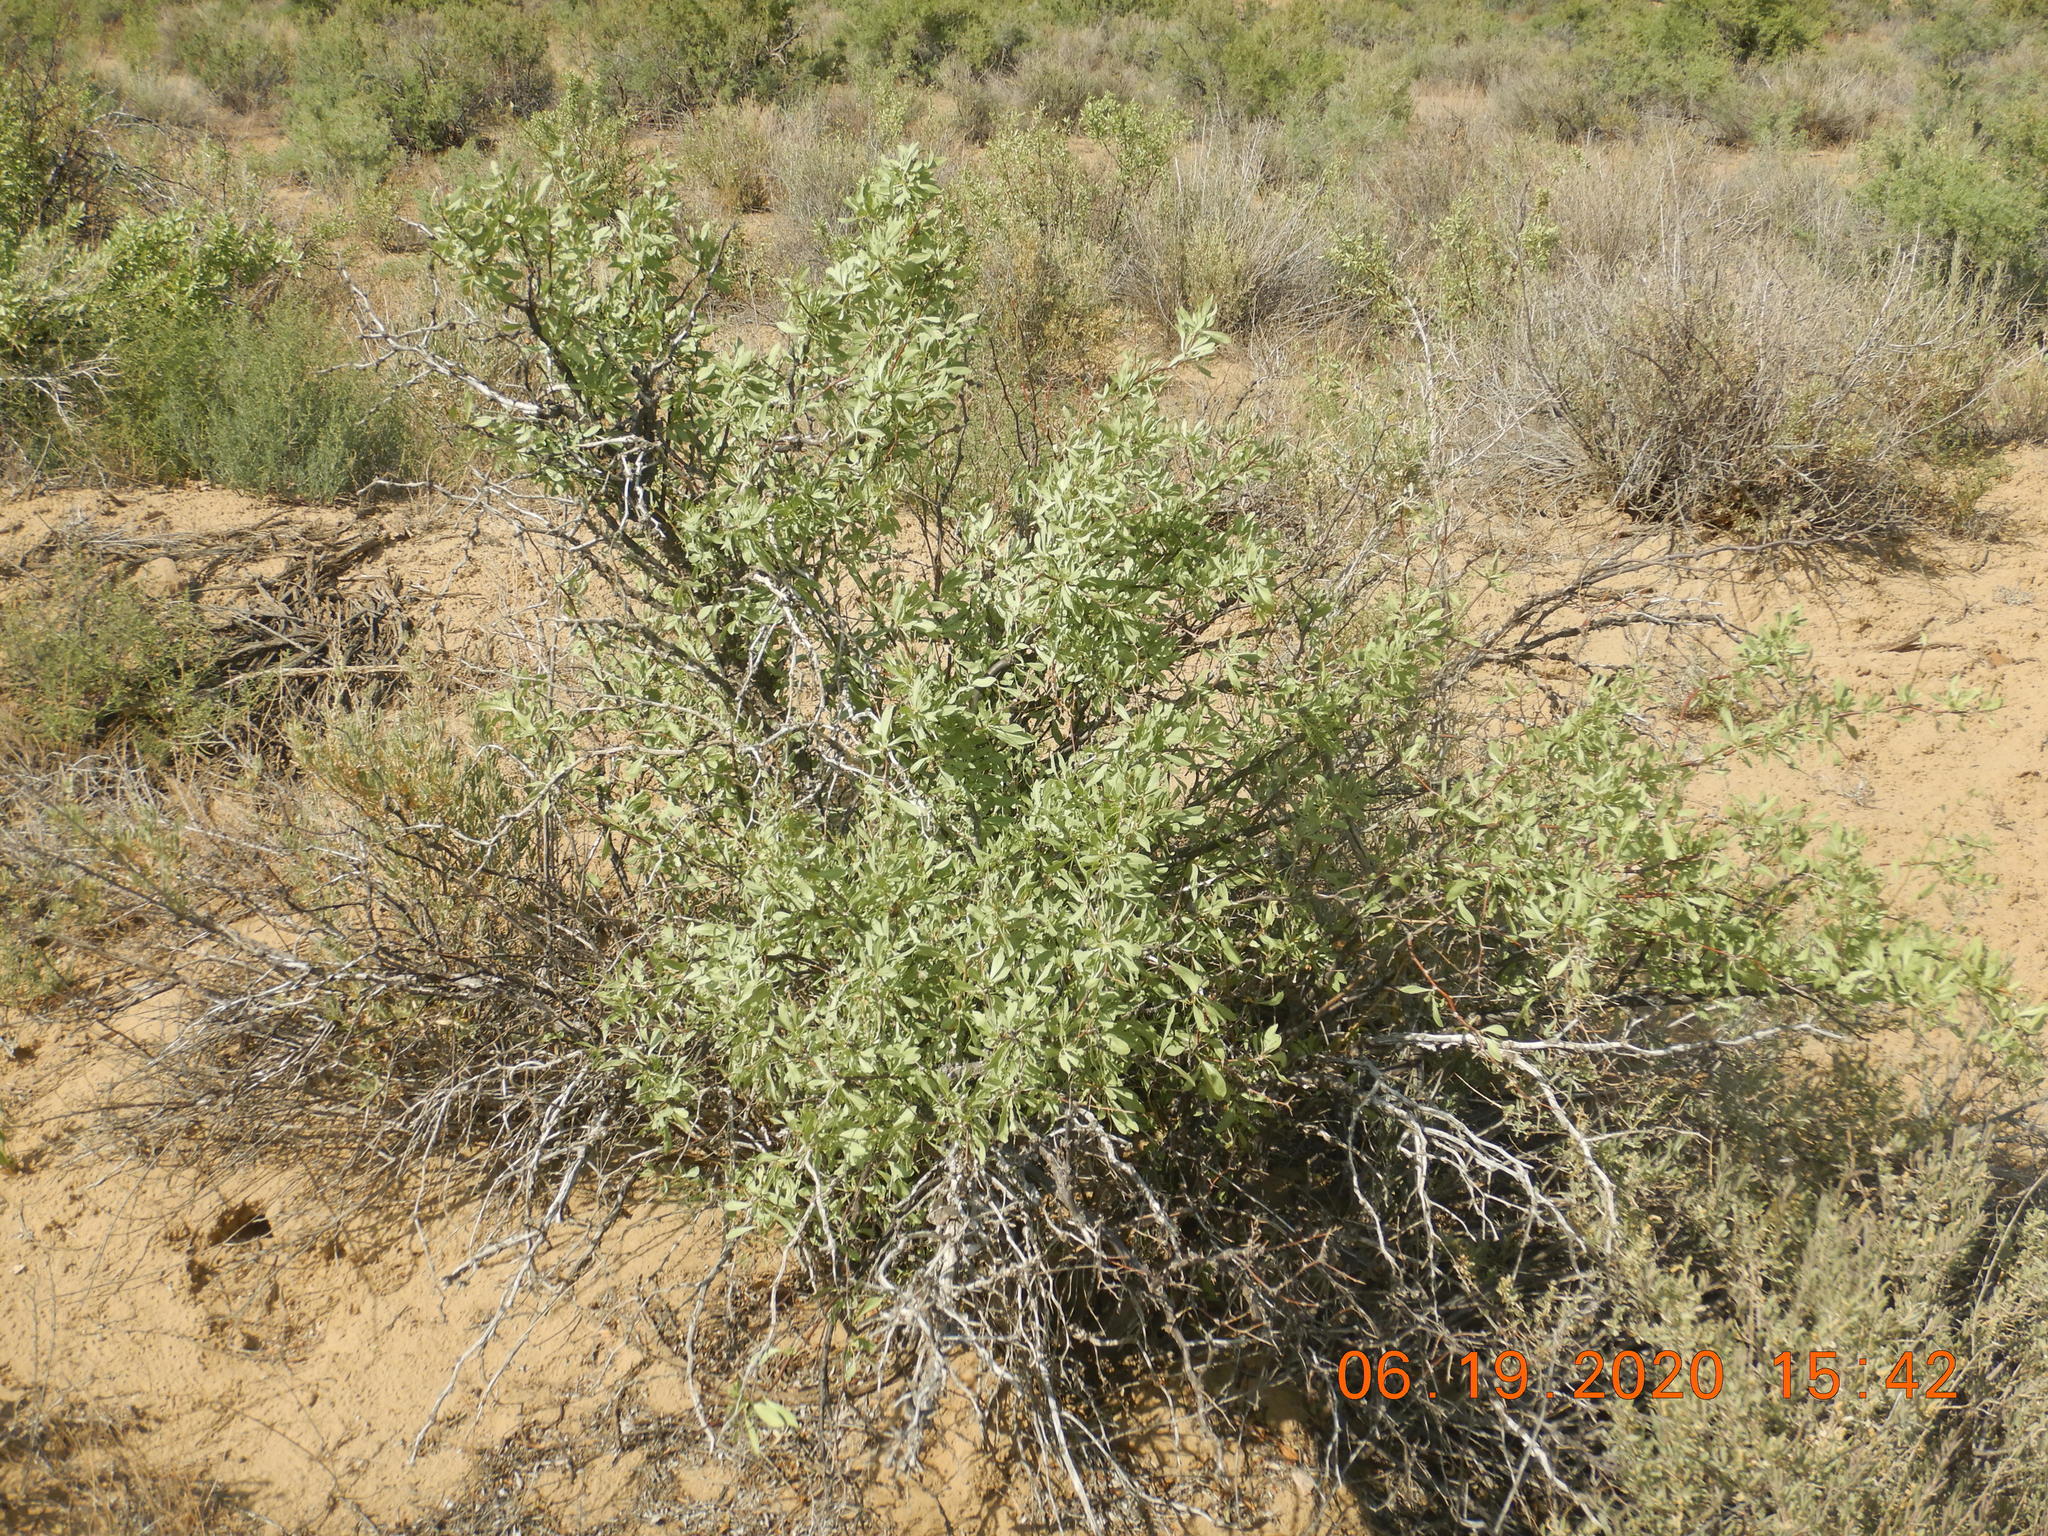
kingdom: Plantae
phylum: Tracheophyta
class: Magnoliopsida
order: Caryophyllales
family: Amaranthaceae
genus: Atriplex
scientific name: Atriplex canescens
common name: Four-wing saltbush
